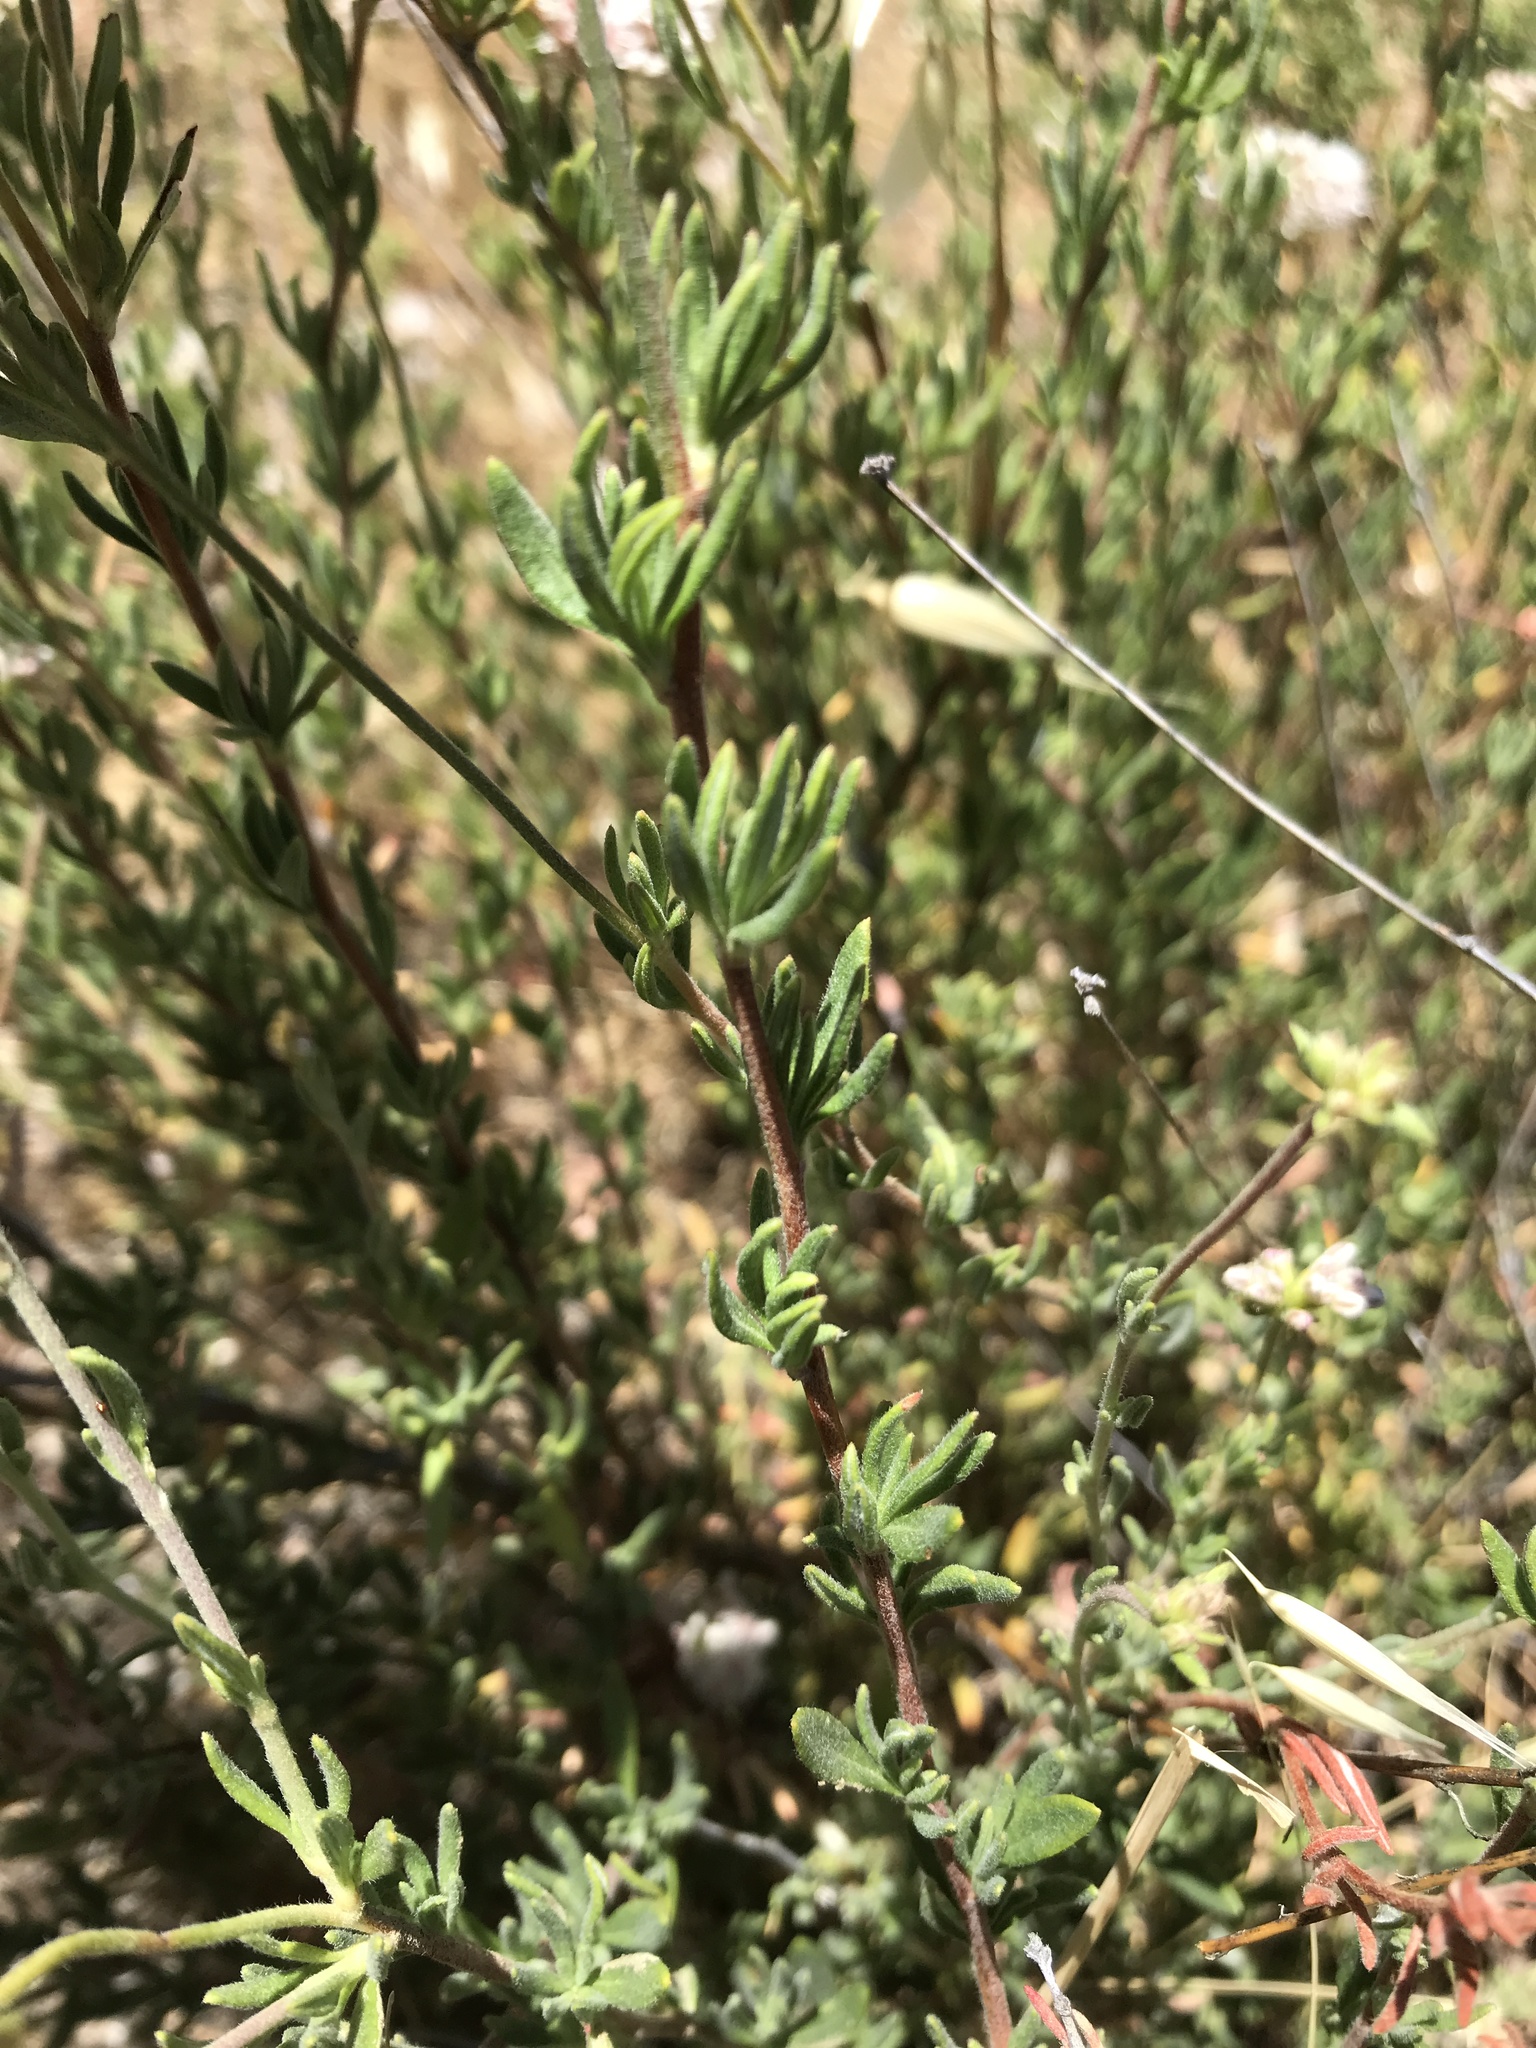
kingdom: Plantae
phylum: Tracheophyta
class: Magnoliopsida
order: Caryophyllales
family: Polygonaceae
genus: Eriogonum
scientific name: Eriogonum fasciculatum
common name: California wild buckwheat
